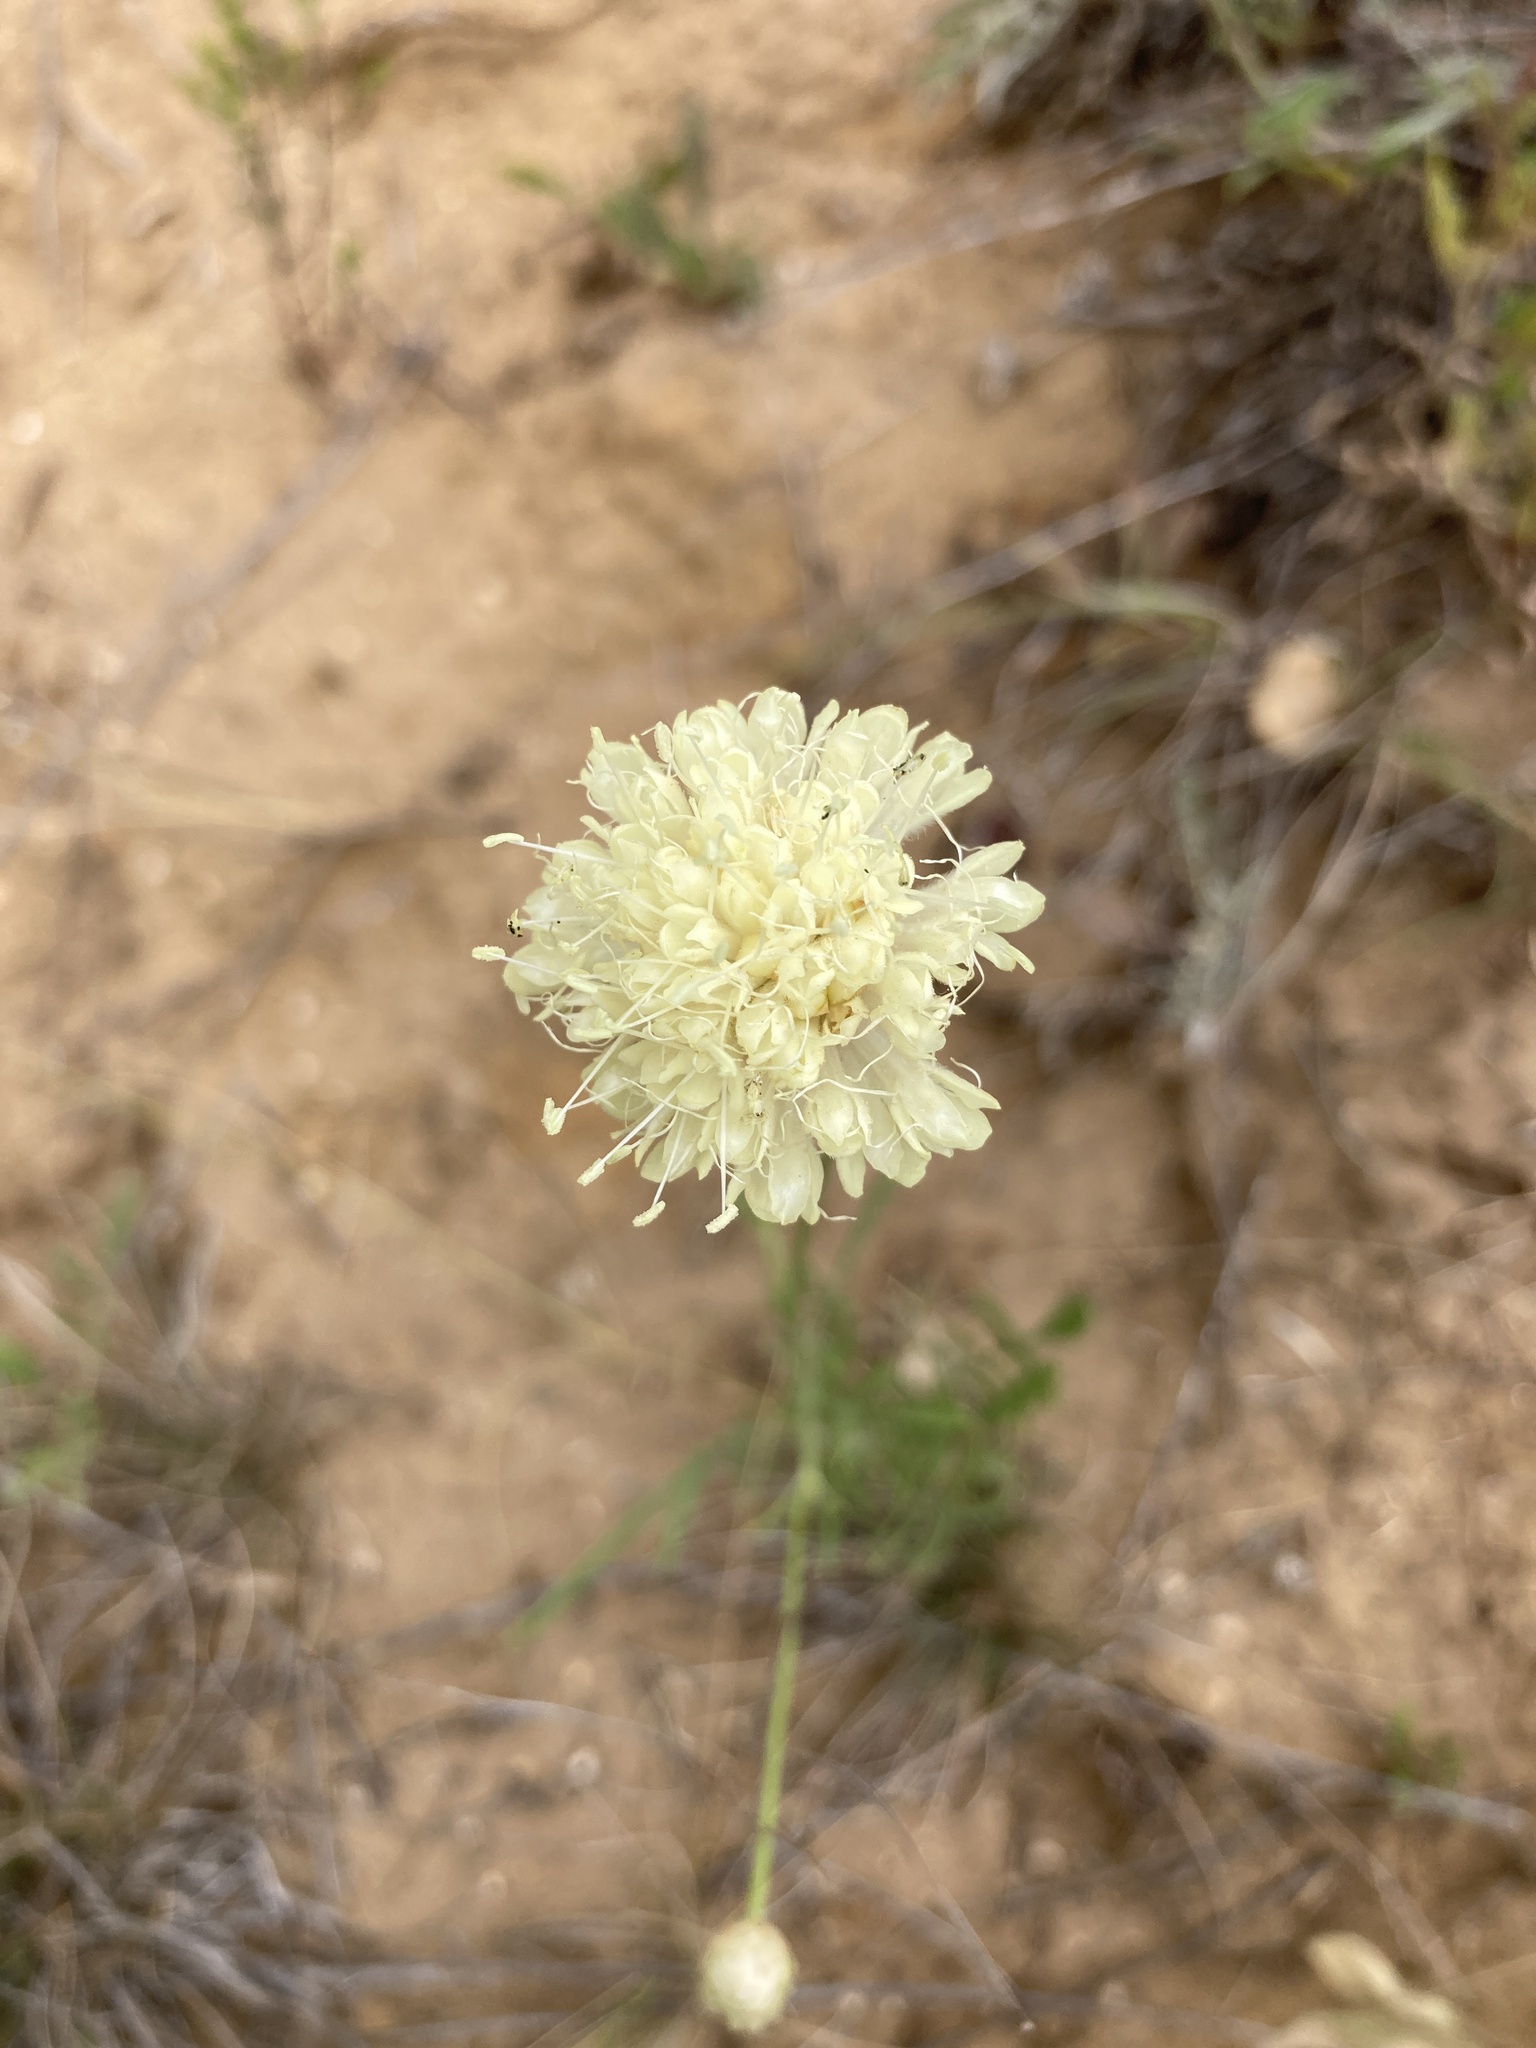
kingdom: Plantae
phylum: Tracheophyta
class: Magnoliopsida
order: Dipsacales
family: Caprifoliaceae
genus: Cephalaria
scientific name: Cephalaria uralensis
